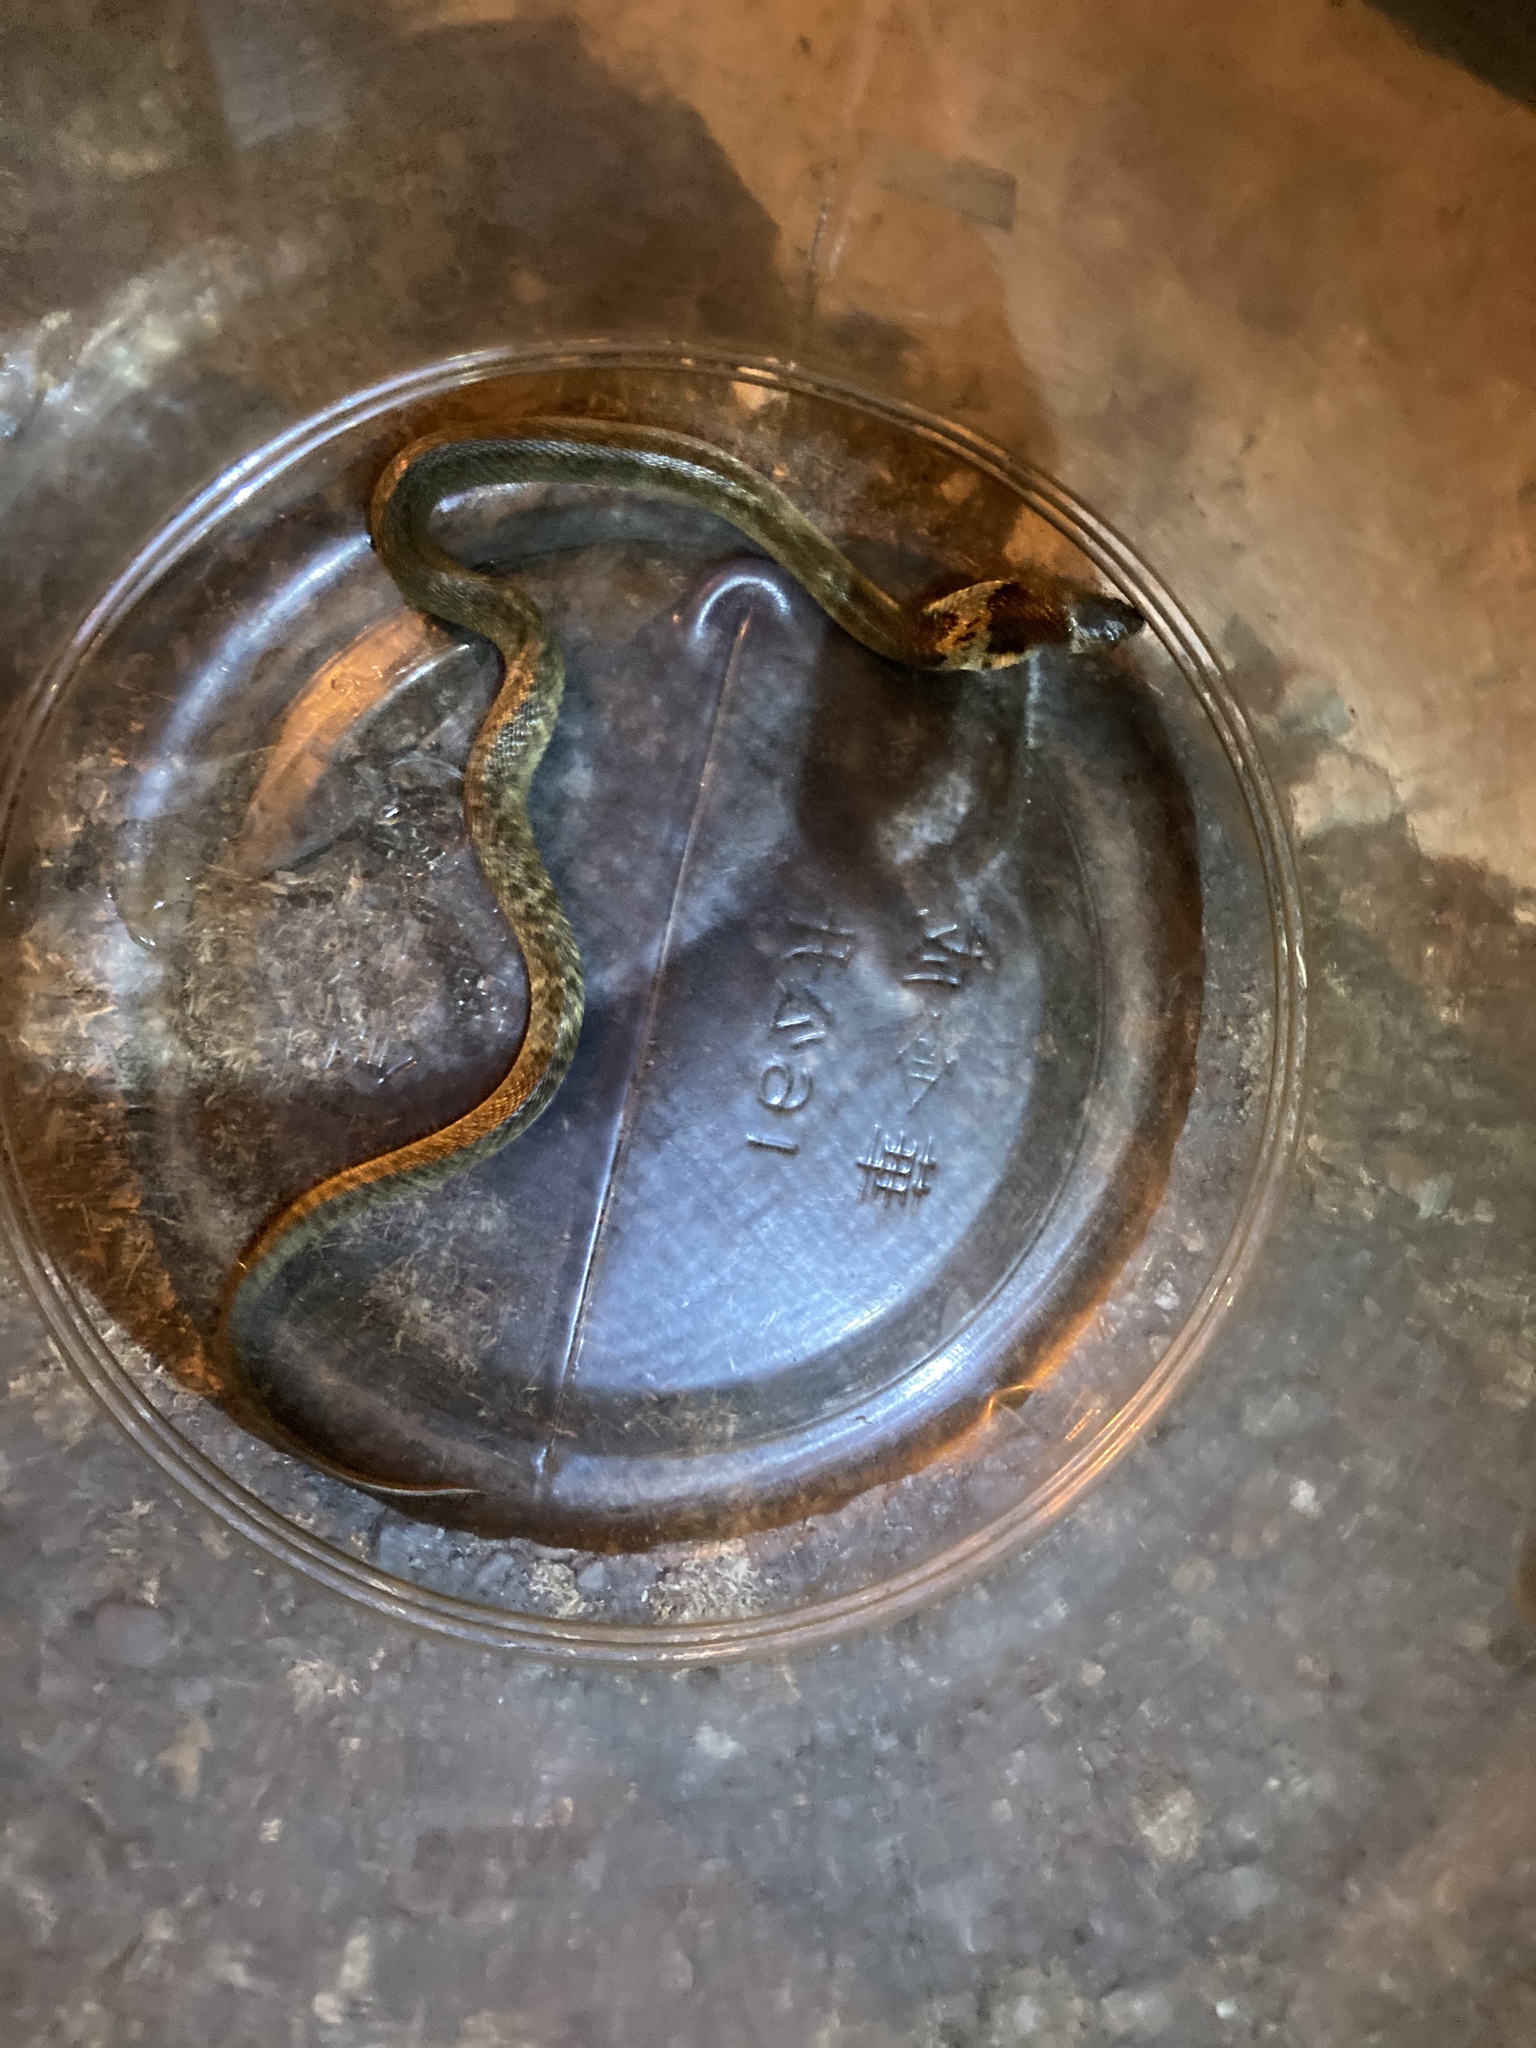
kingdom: Animalia
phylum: Chordata
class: Squamata
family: Elapidae
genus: Naja
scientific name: Naja atra
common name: Chinese cobra
